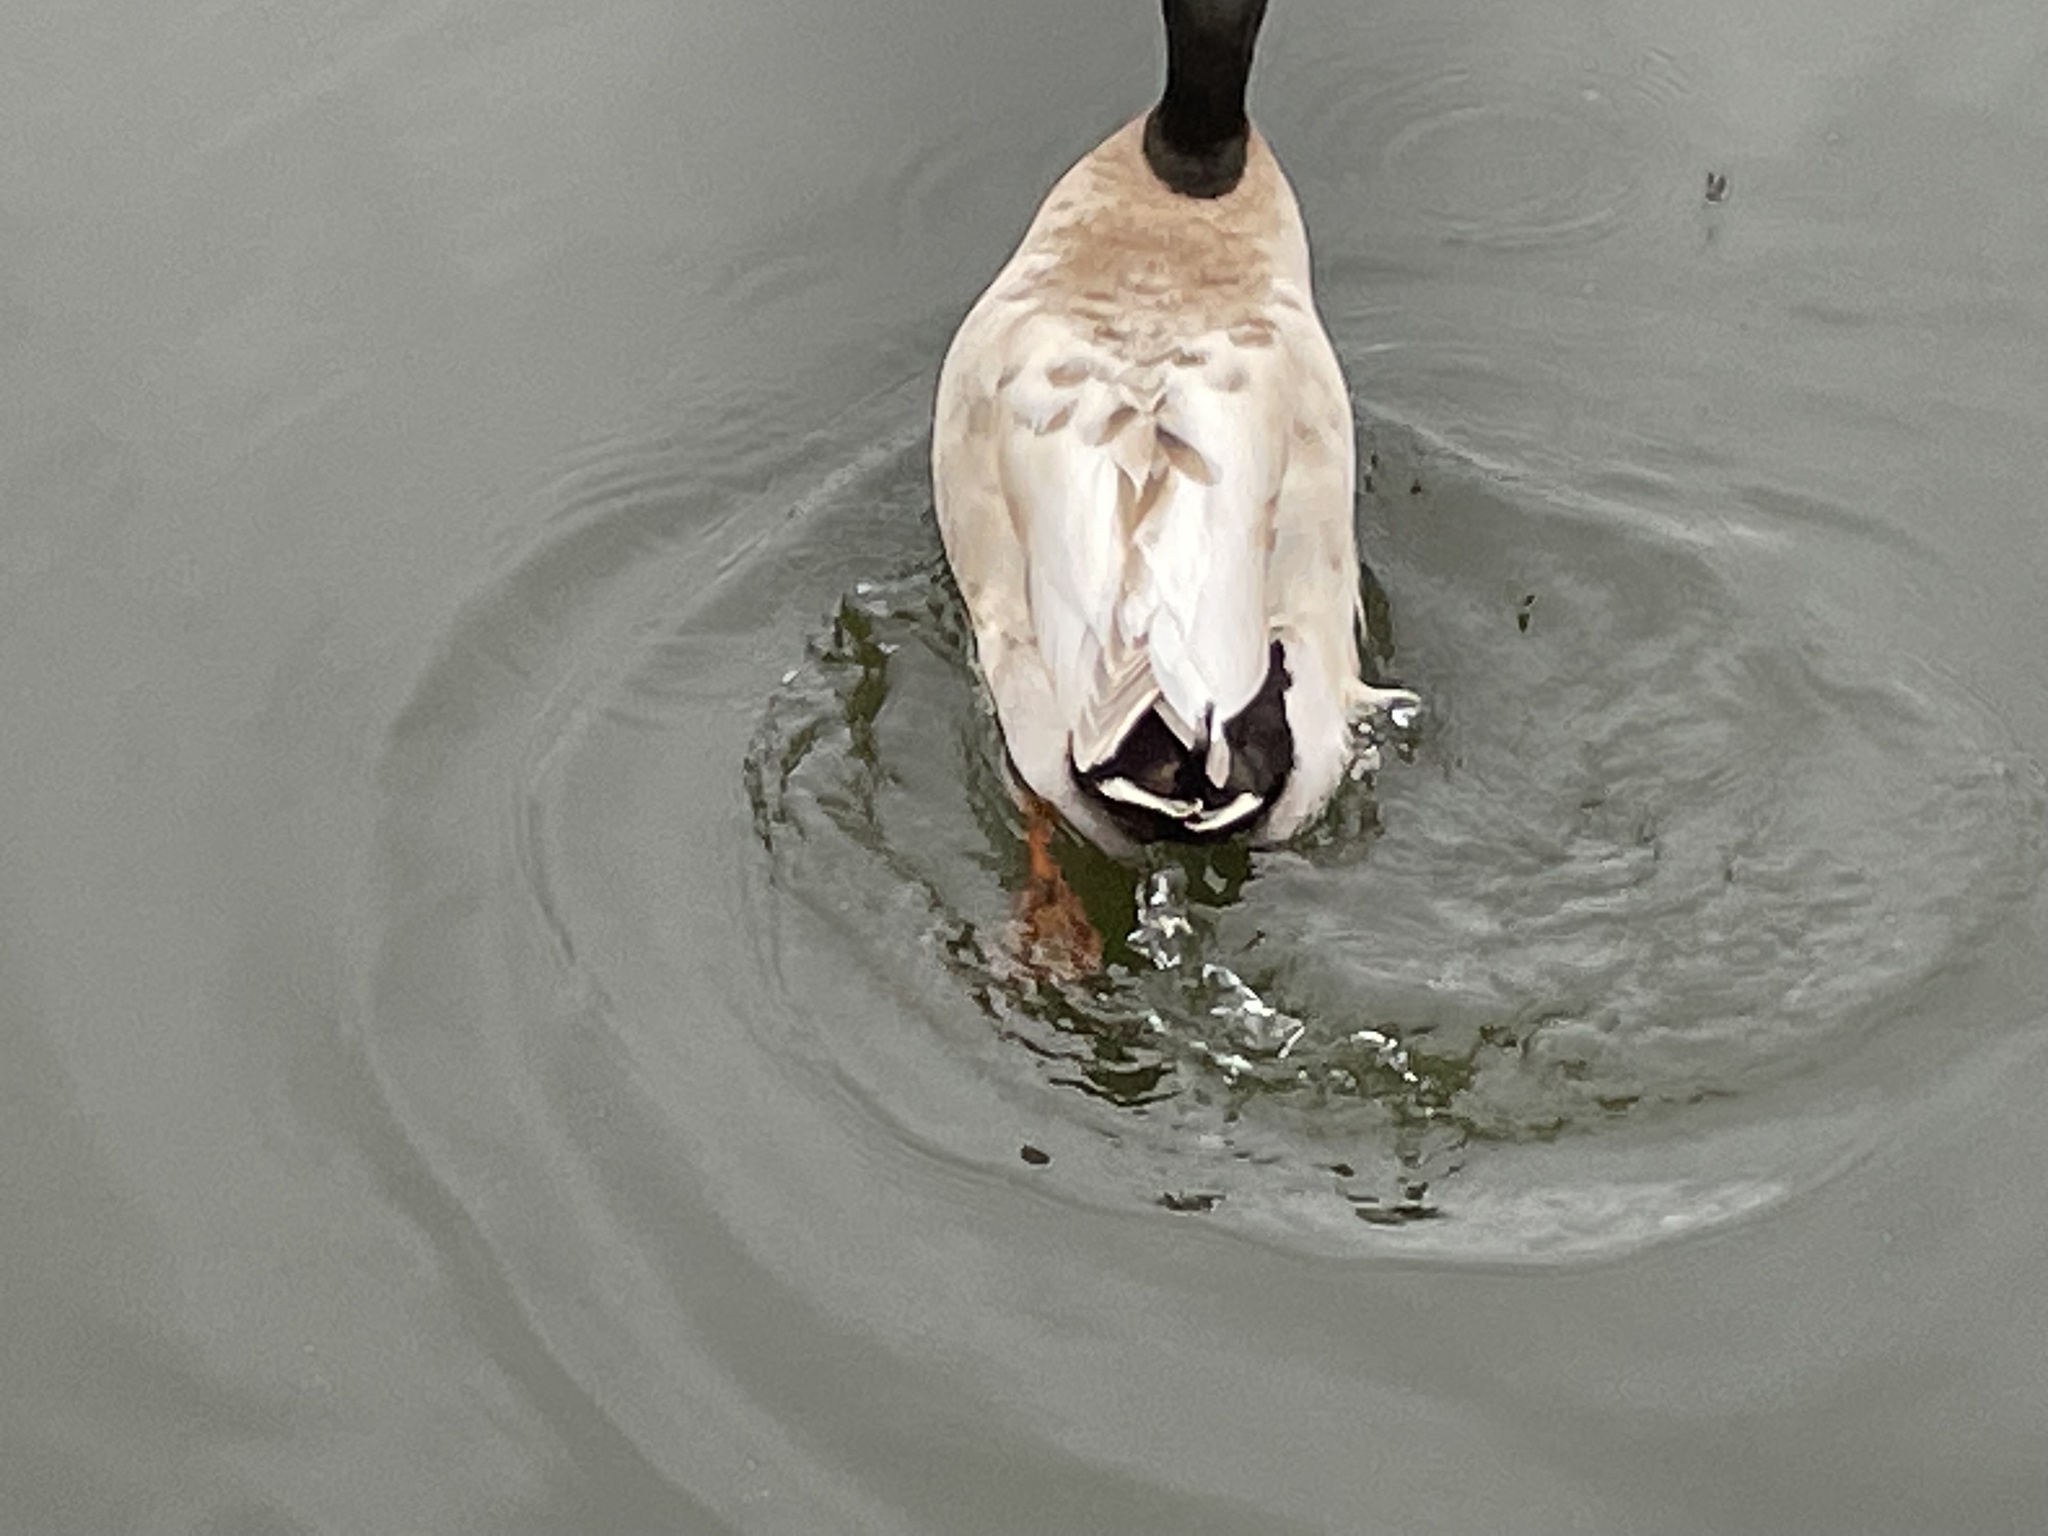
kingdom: Animalia
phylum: Chordata
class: Aves
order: Anseriformes
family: Anatidae
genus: Anas
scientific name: Anas platyrhynchos
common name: Mallard
